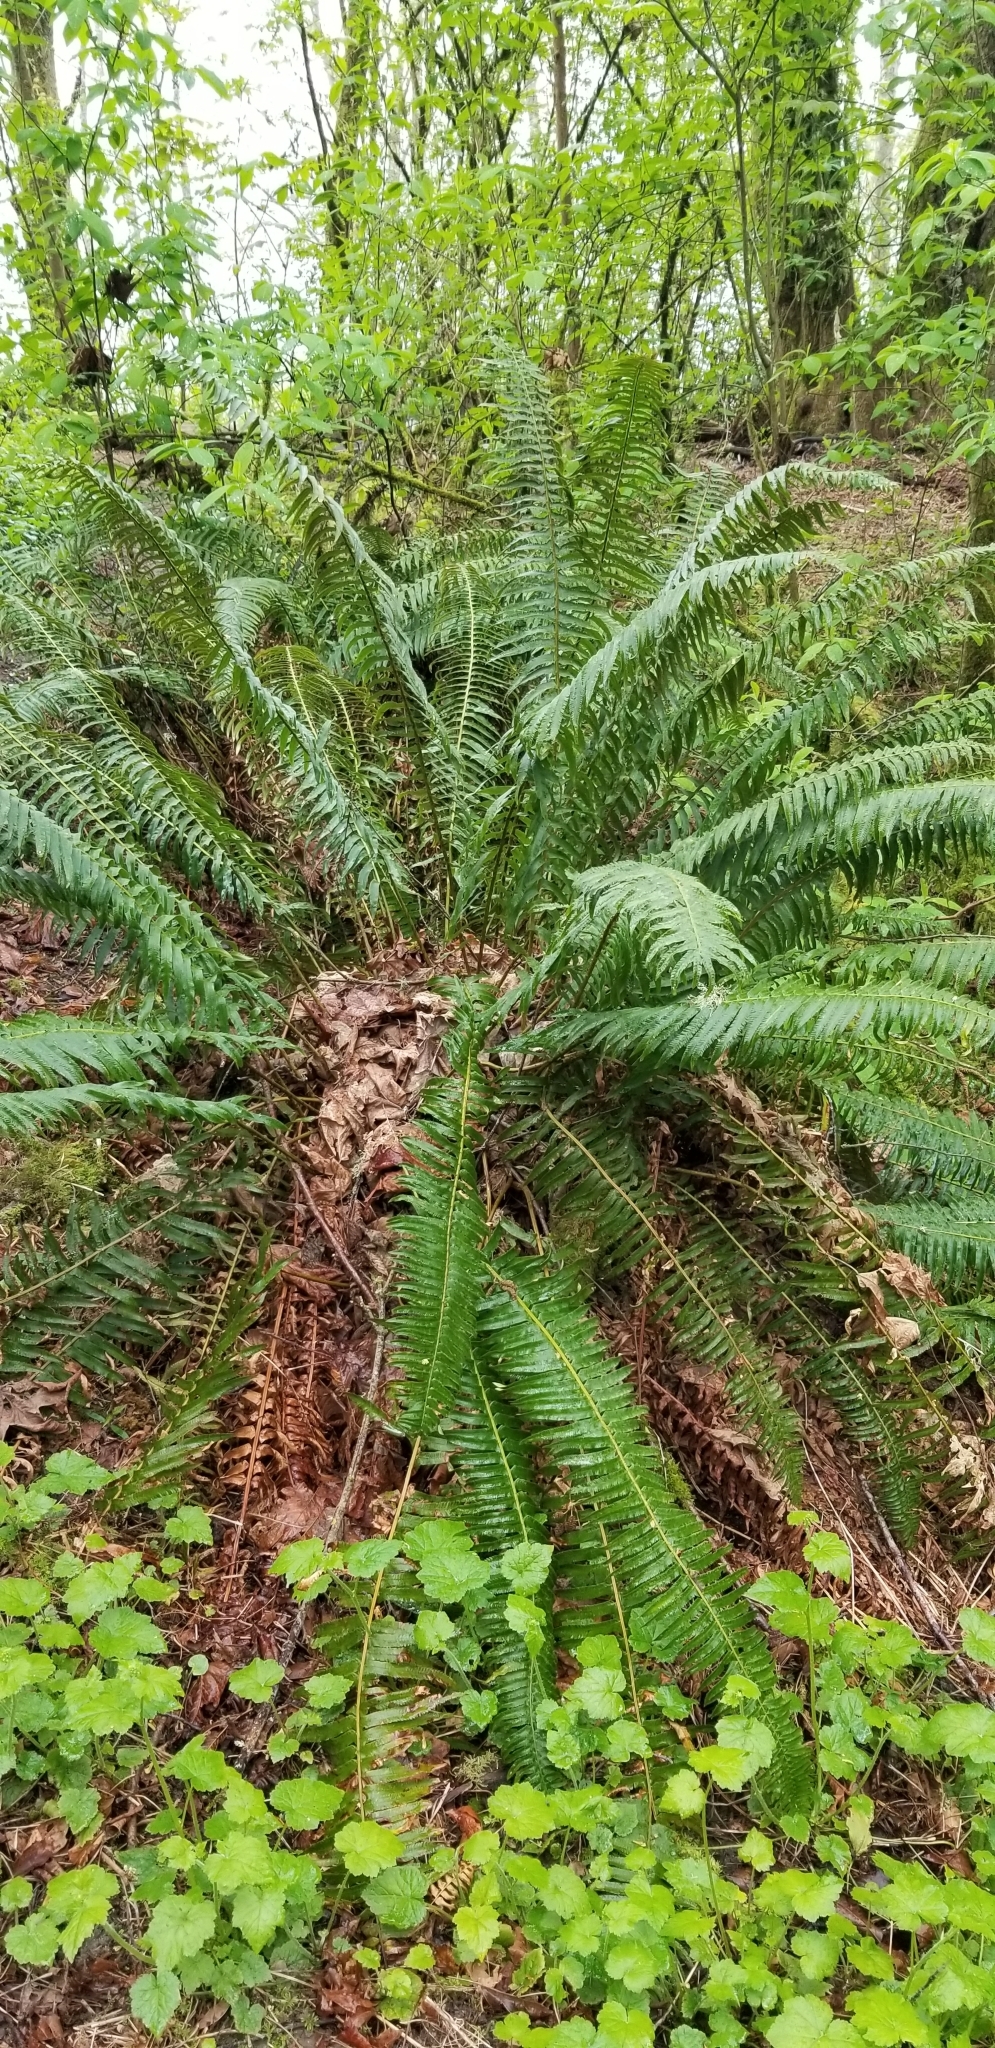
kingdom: Plantae
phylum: Tracheophyta
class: Polypodiopsida
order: Polypodiales
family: Dryopteridaceae
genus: Polystichum
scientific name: Polystichum munitum
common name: Western sword-fern
